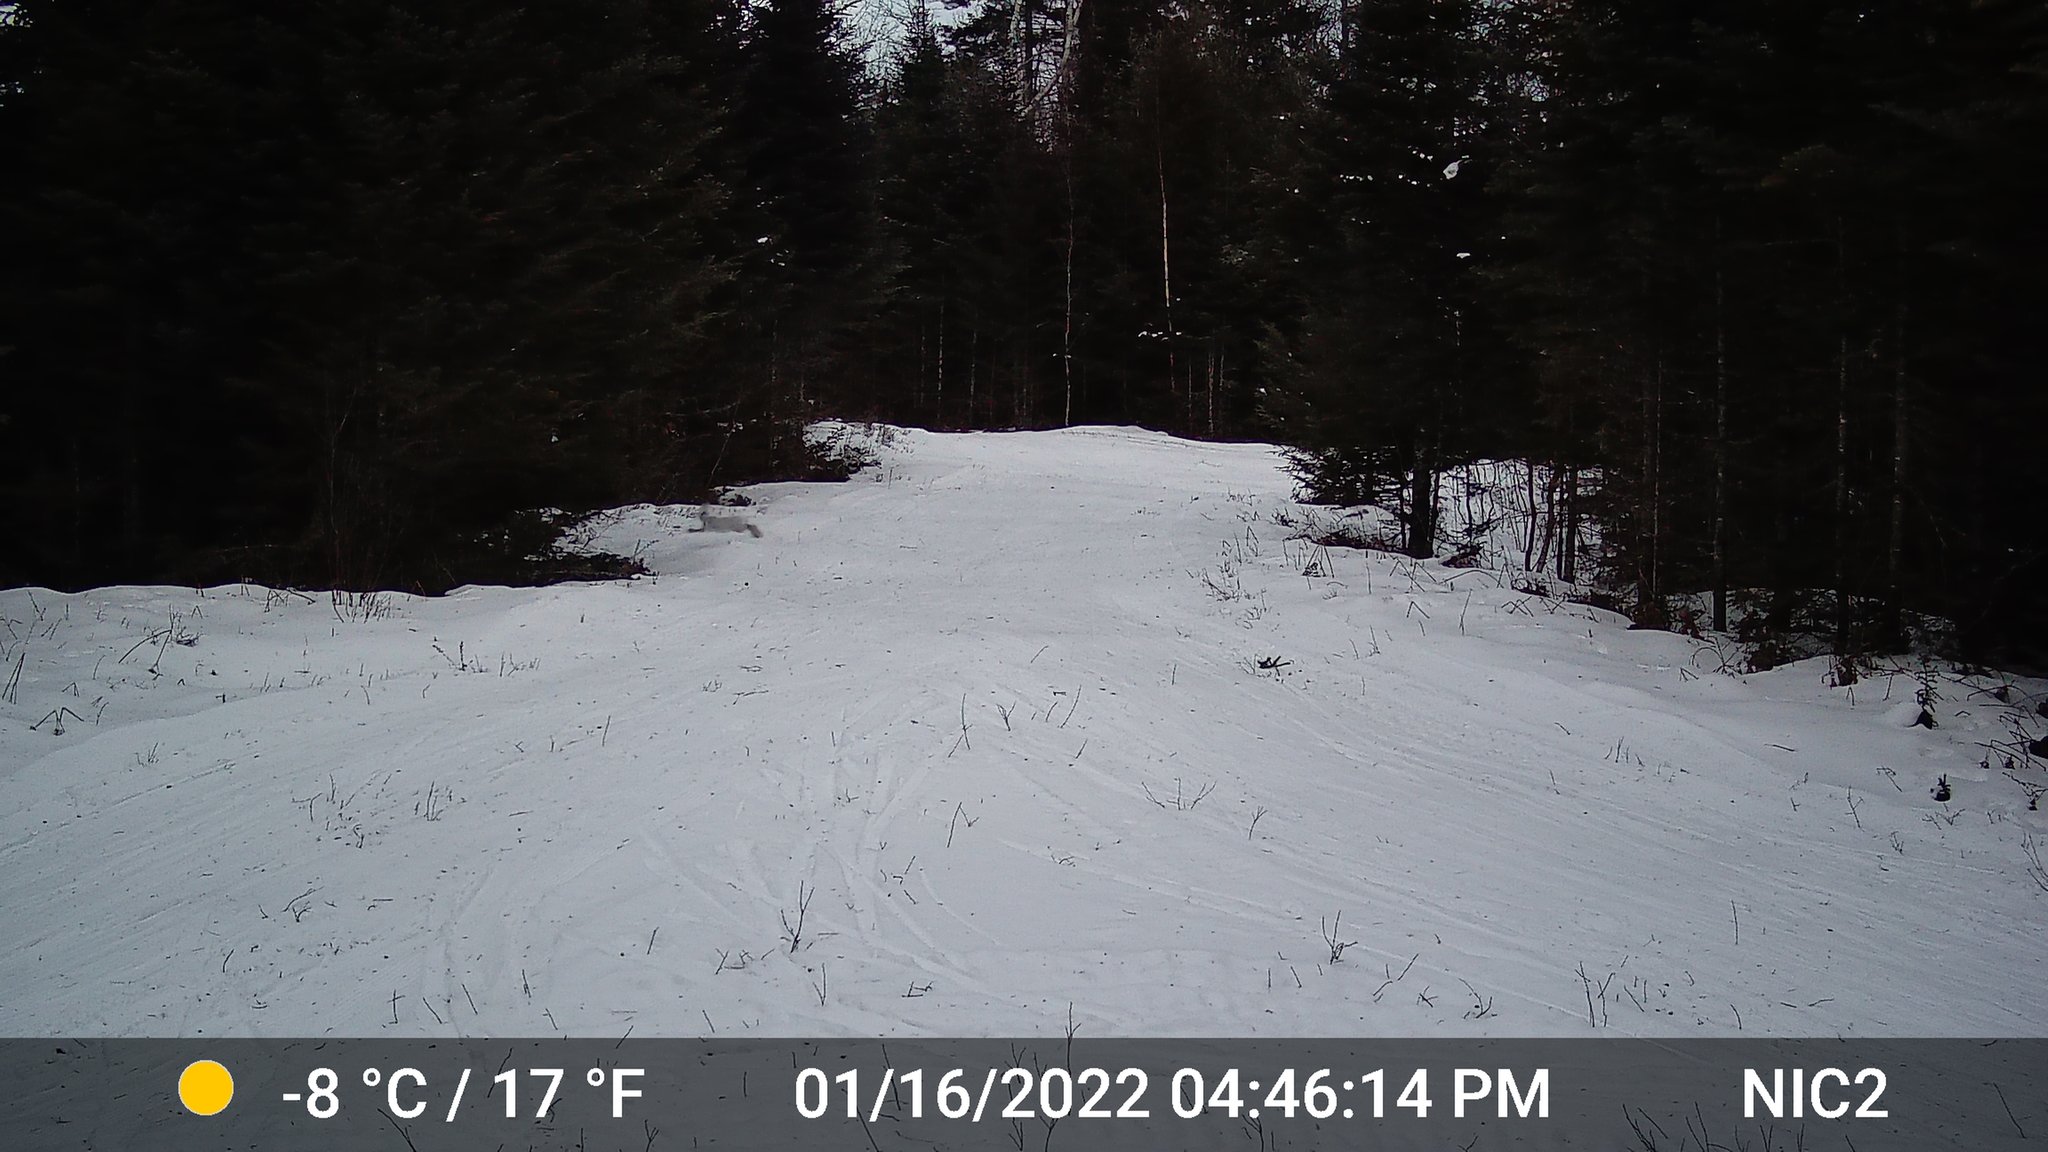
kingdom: Animalia
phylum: Chordata
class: Mammalia
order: Lagomorpha
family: Leporidae
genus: Lepus
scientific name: Lepus americanus
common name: Snowshoe hare
